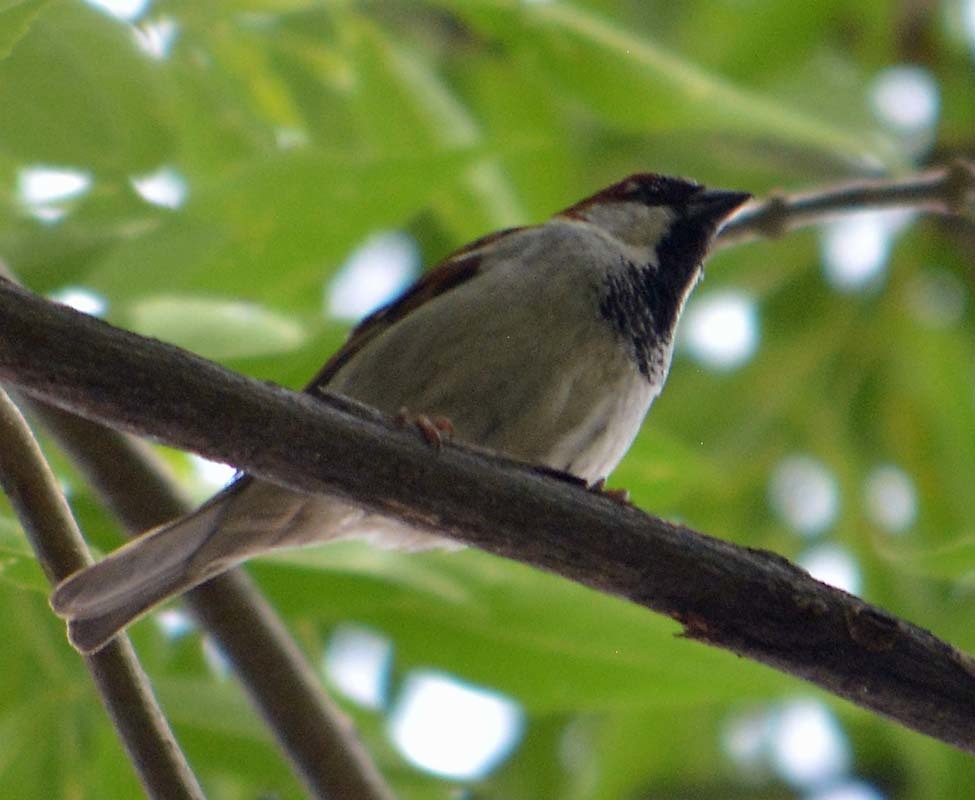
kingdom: Animalia
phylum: Chordata
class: Aves
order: Passeriformes
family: Passeridae
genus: Passer
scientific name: Passer domesticus
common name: House sparrow
